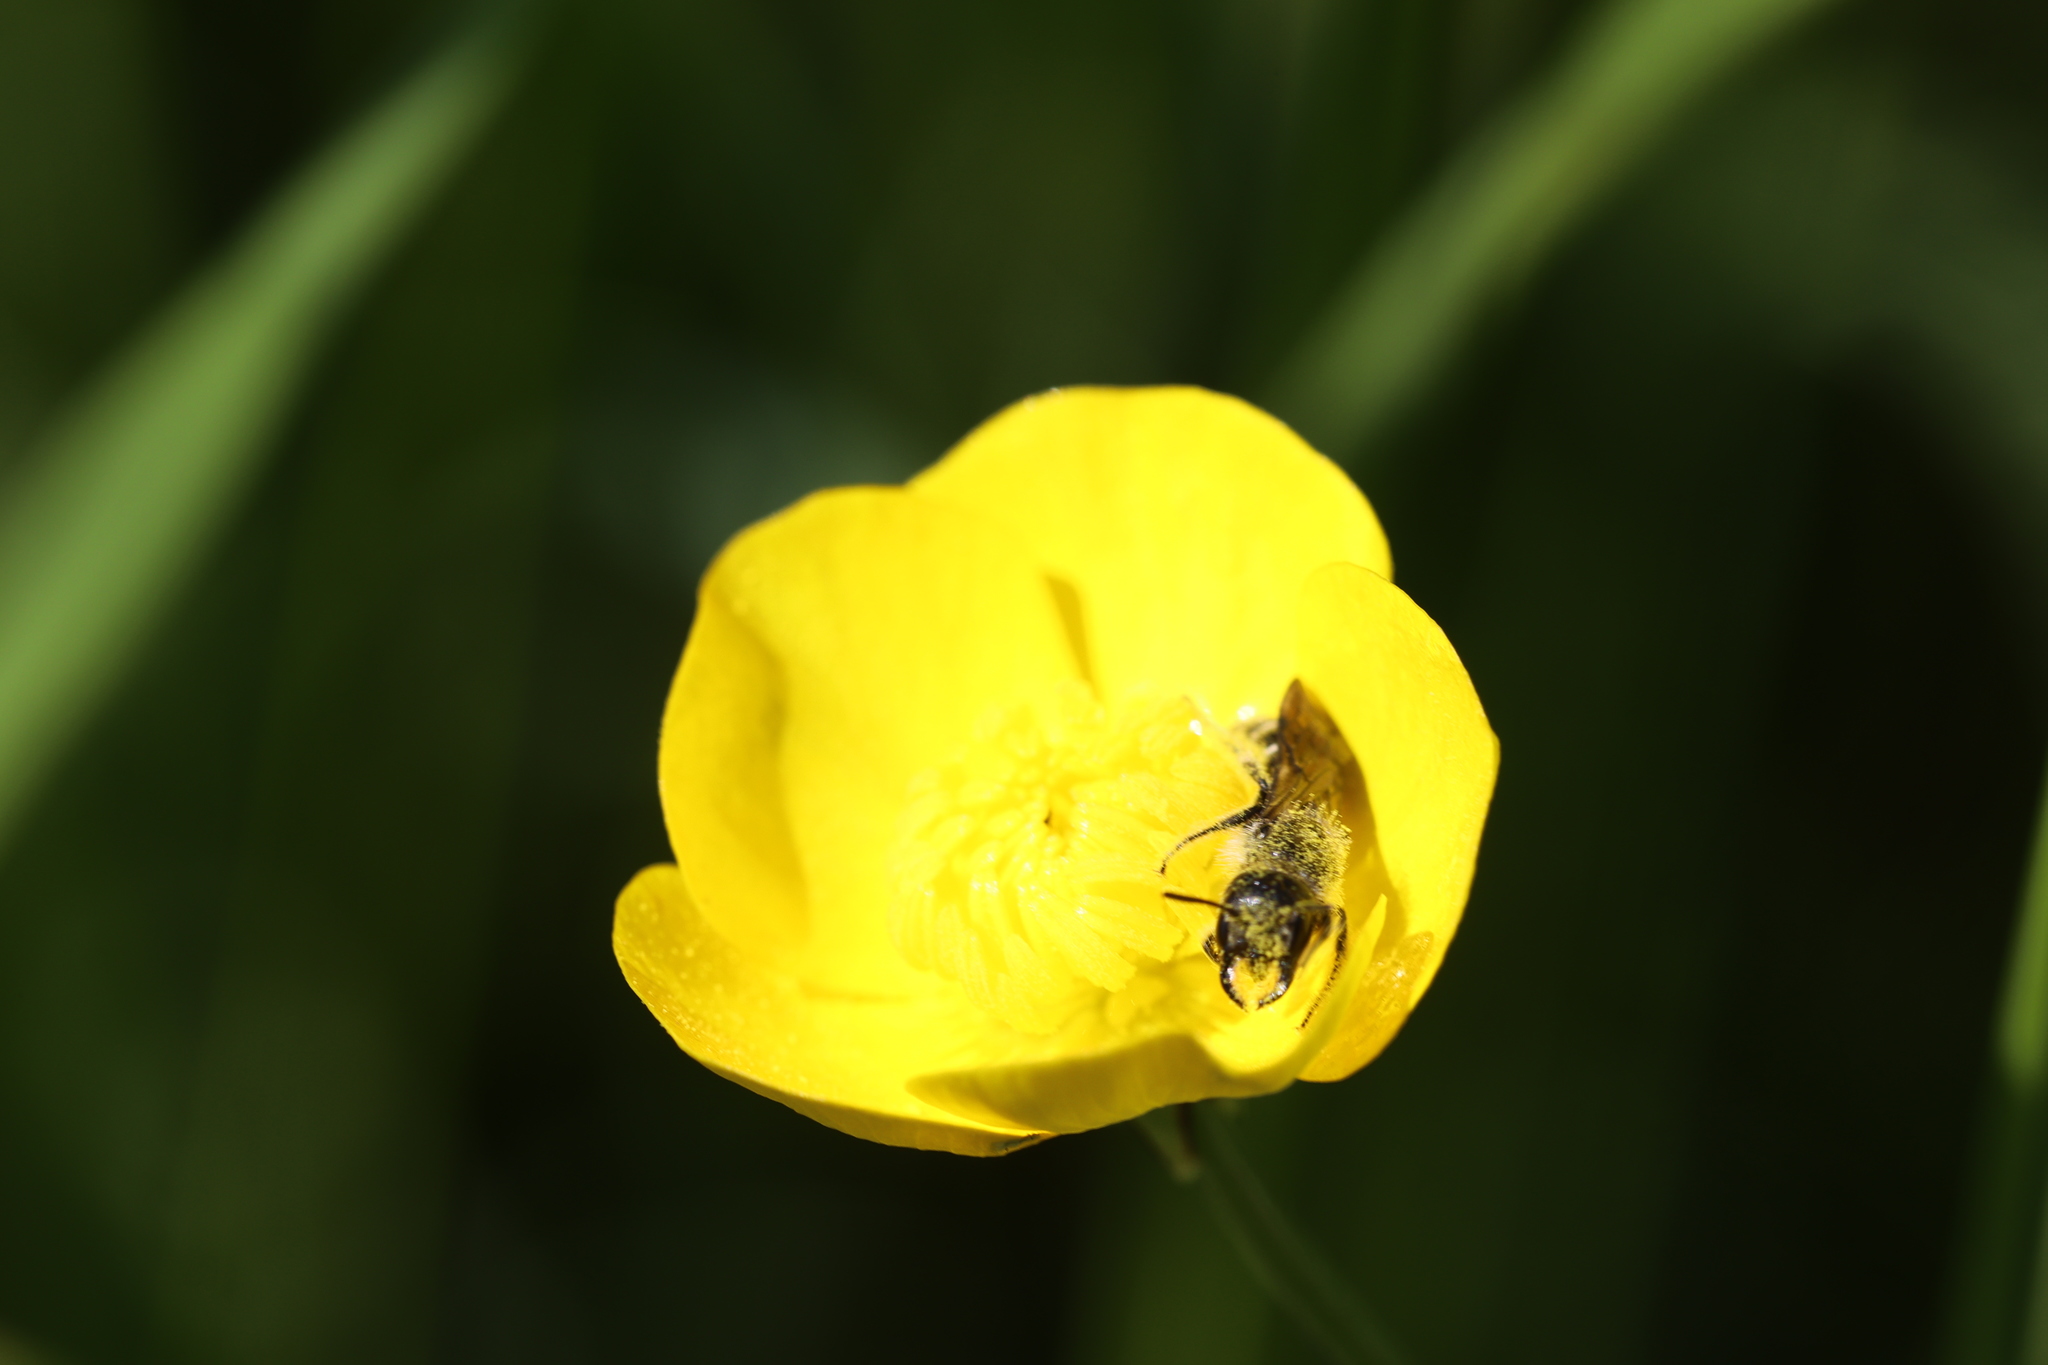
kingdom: Animalia
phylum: Arthropoda
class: Insecta
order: Hymenoptera
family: Megachilidae
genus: Chelostoma
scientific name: Chelostoma florisomne
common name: Sleepy carpenter bee
